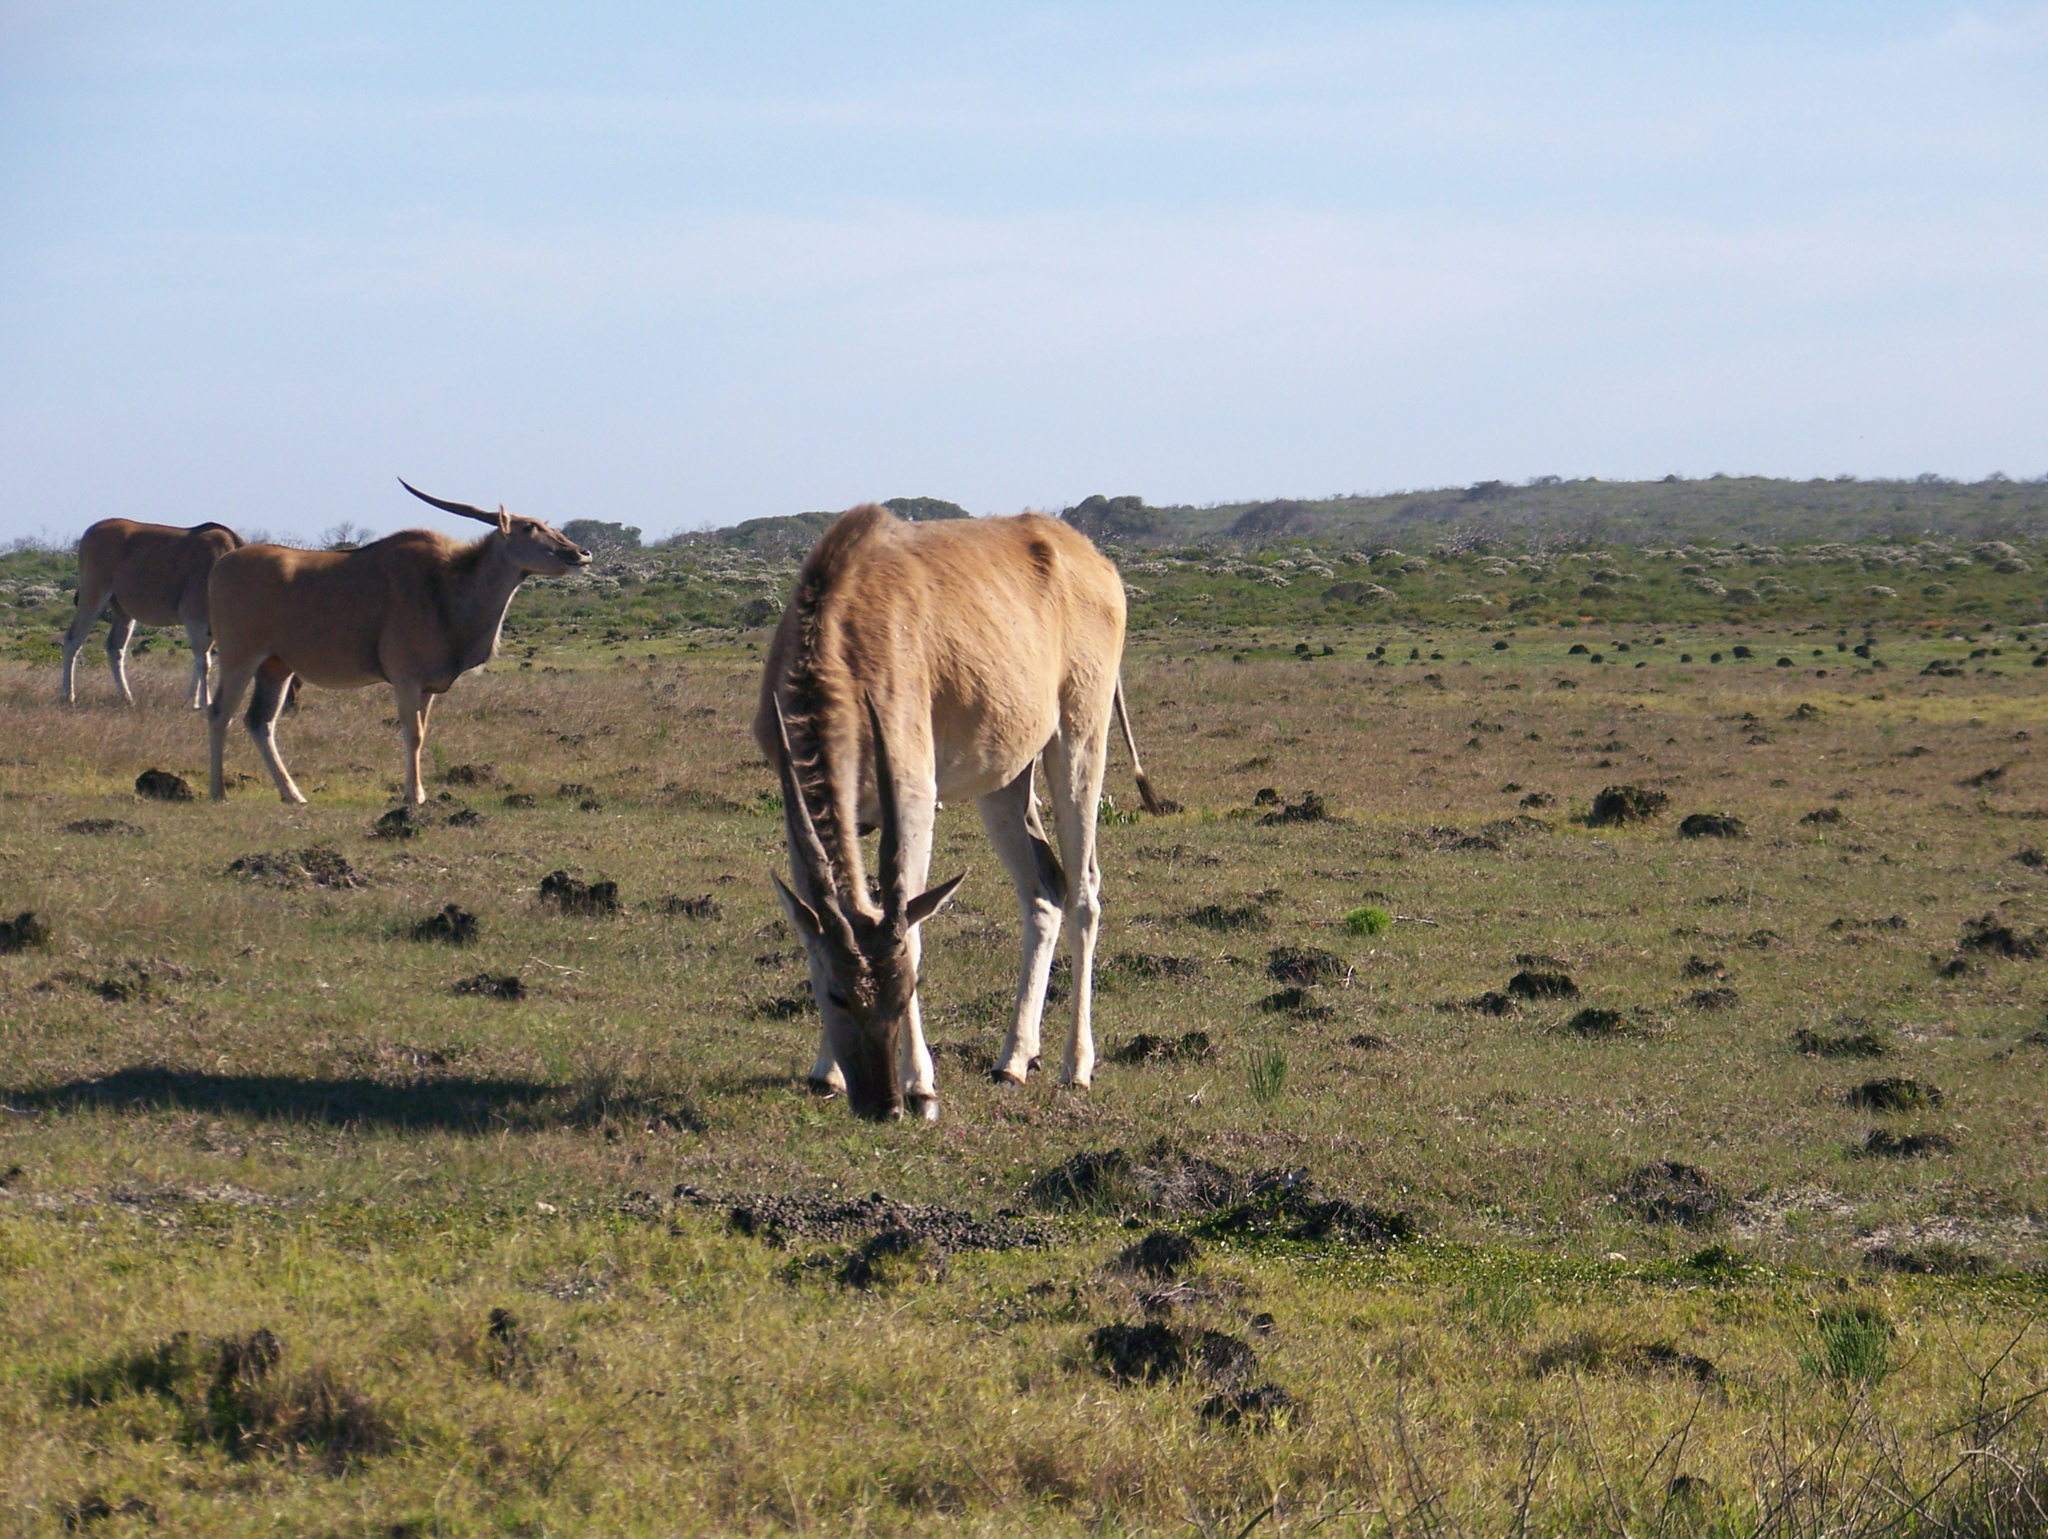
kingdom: Animalia
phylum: Chordata
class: Mammalia
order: Artiodactyla
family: Bovidae
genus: Taurotragus
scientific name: Taurotragus oryx
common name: Common eland
